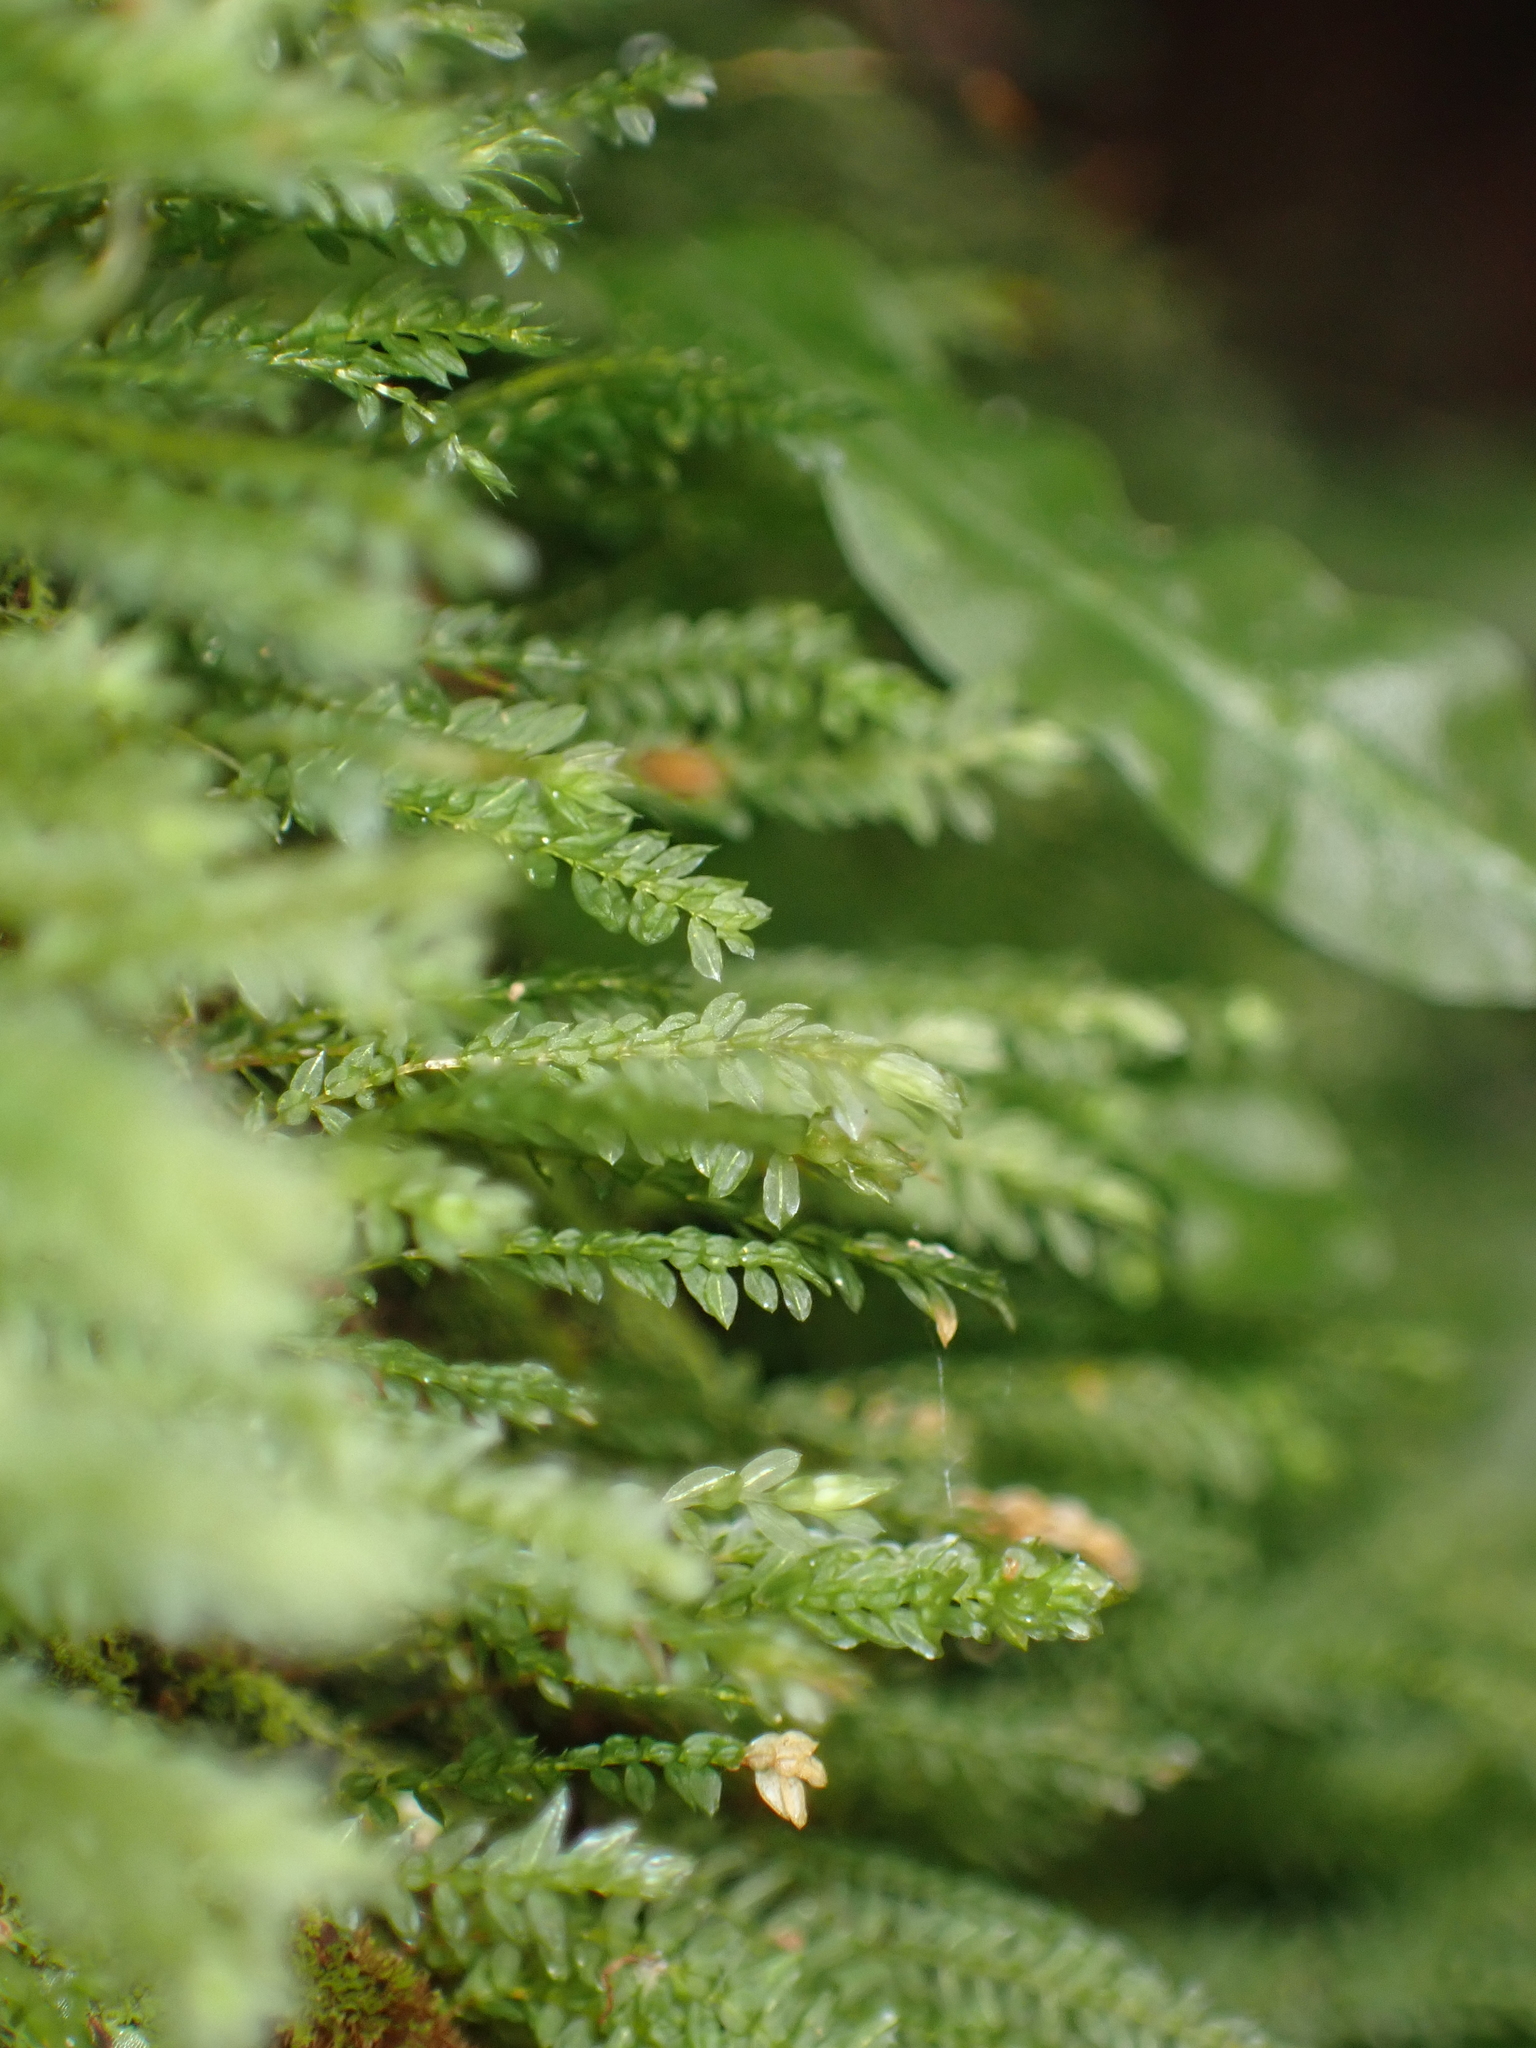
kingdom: Plantae
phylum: Bryophyta
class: Bryopsida
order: Rhizogoniales
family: Calomniaceae
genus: Calomnion
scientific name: Calomnion complanatum
